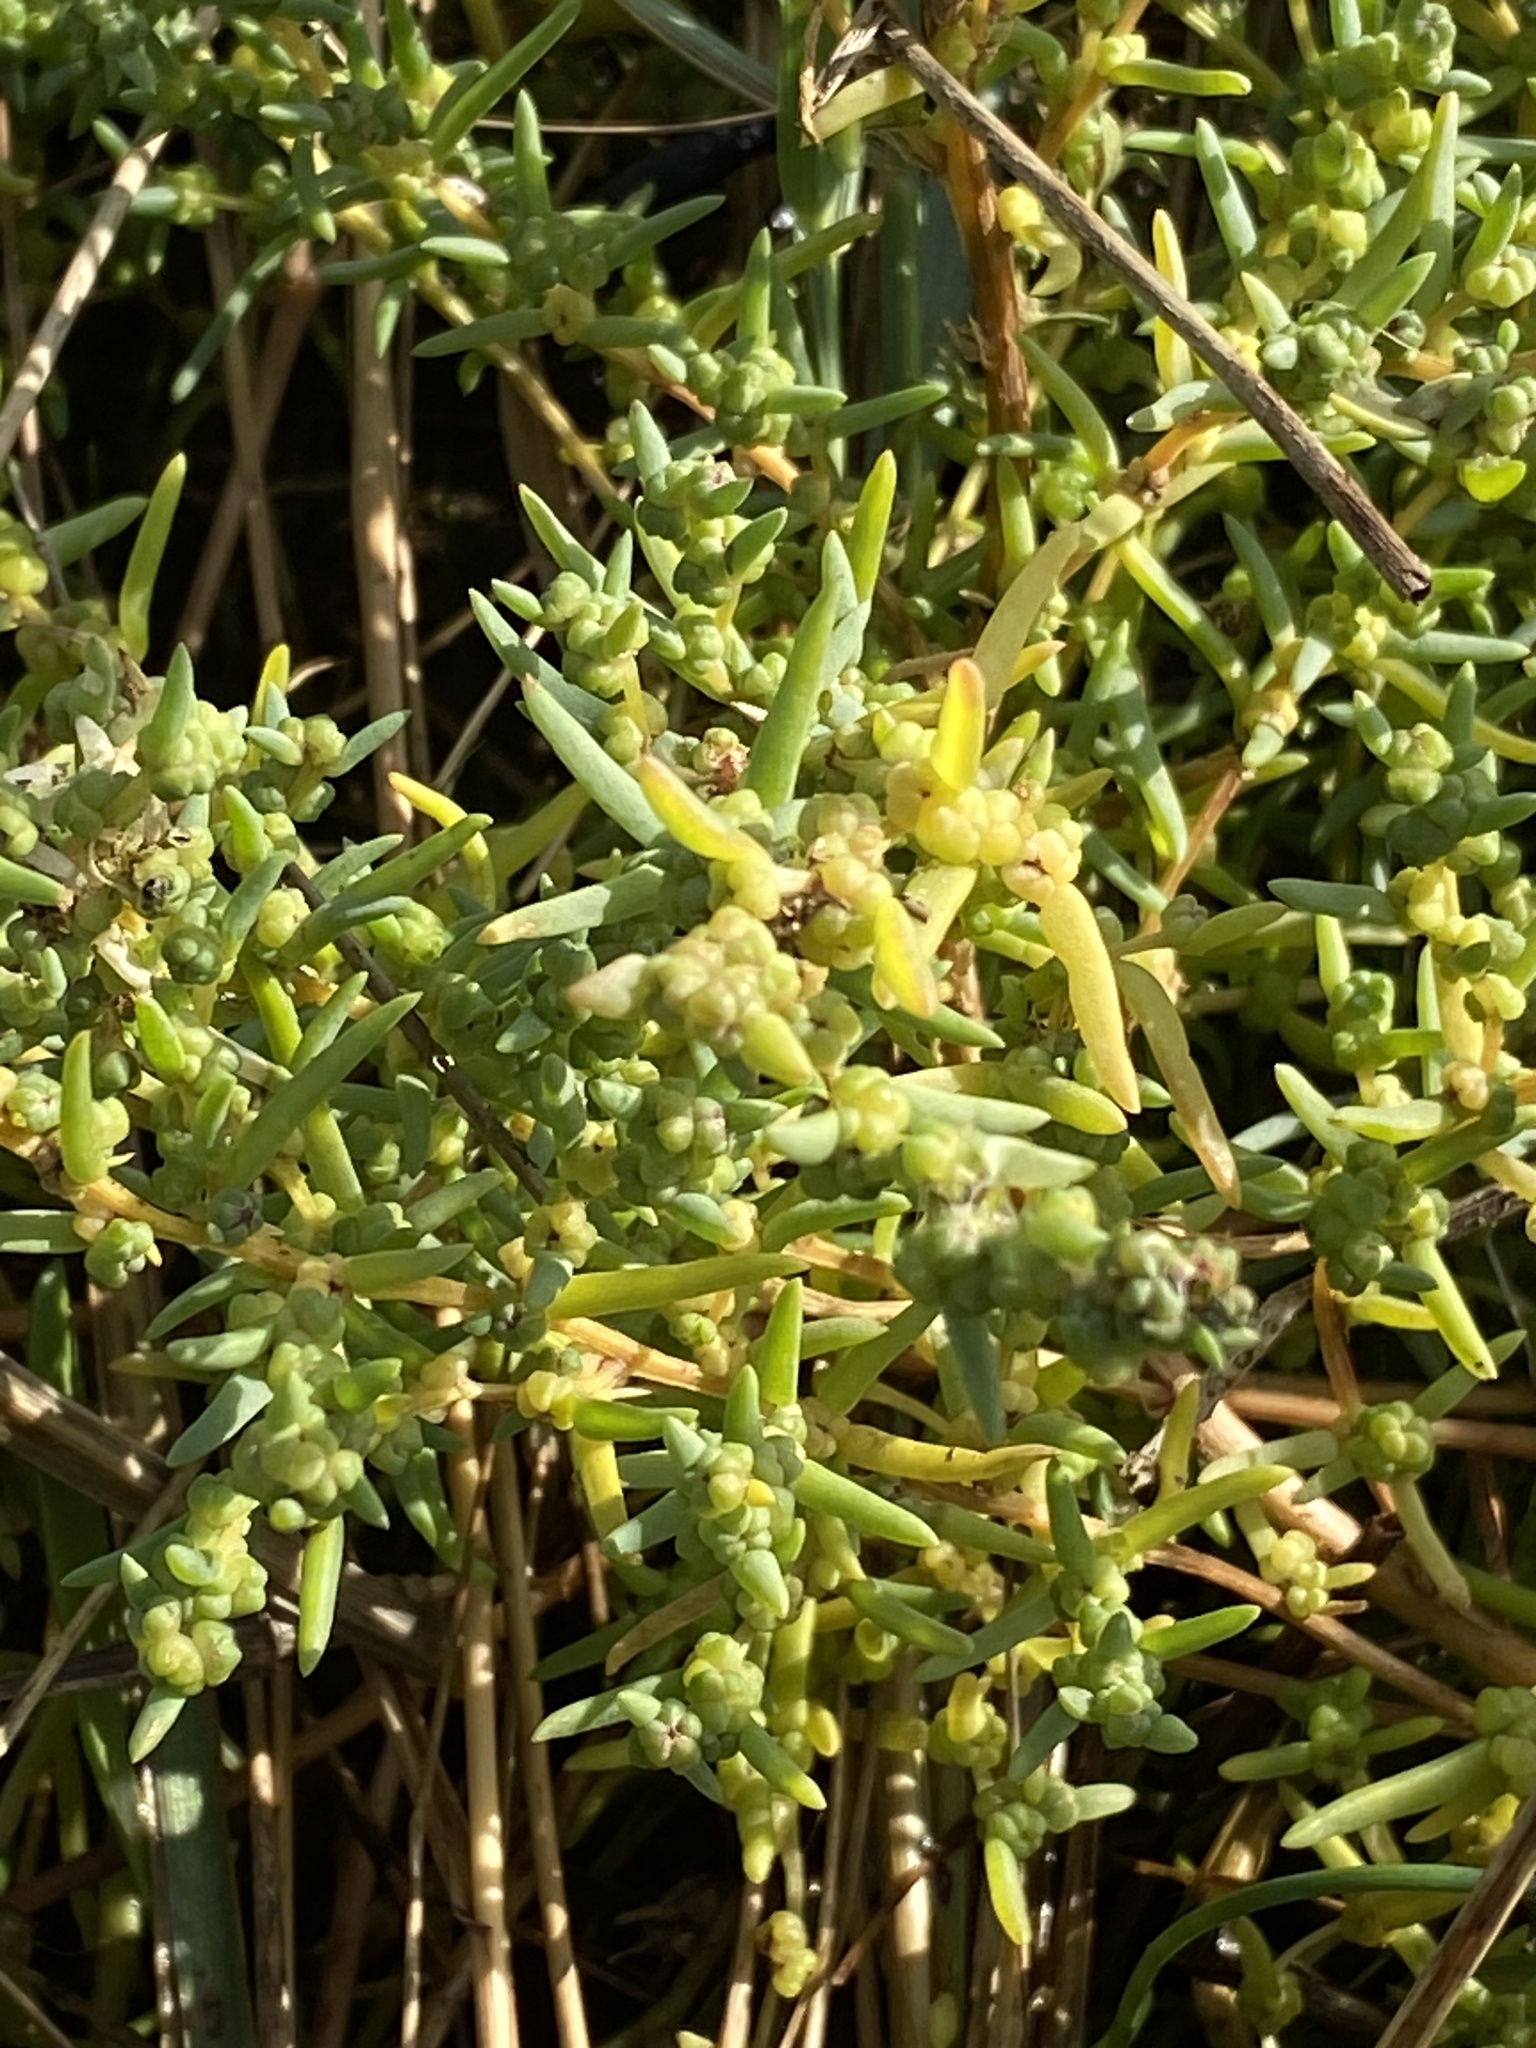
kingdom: Plantae
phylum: Tracheophyta
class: Magnoliopsida
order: Caryophyllales
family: Amaranthaceae
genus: Suaeda
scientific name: Suaeda maritima
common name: Annual sea-blite
